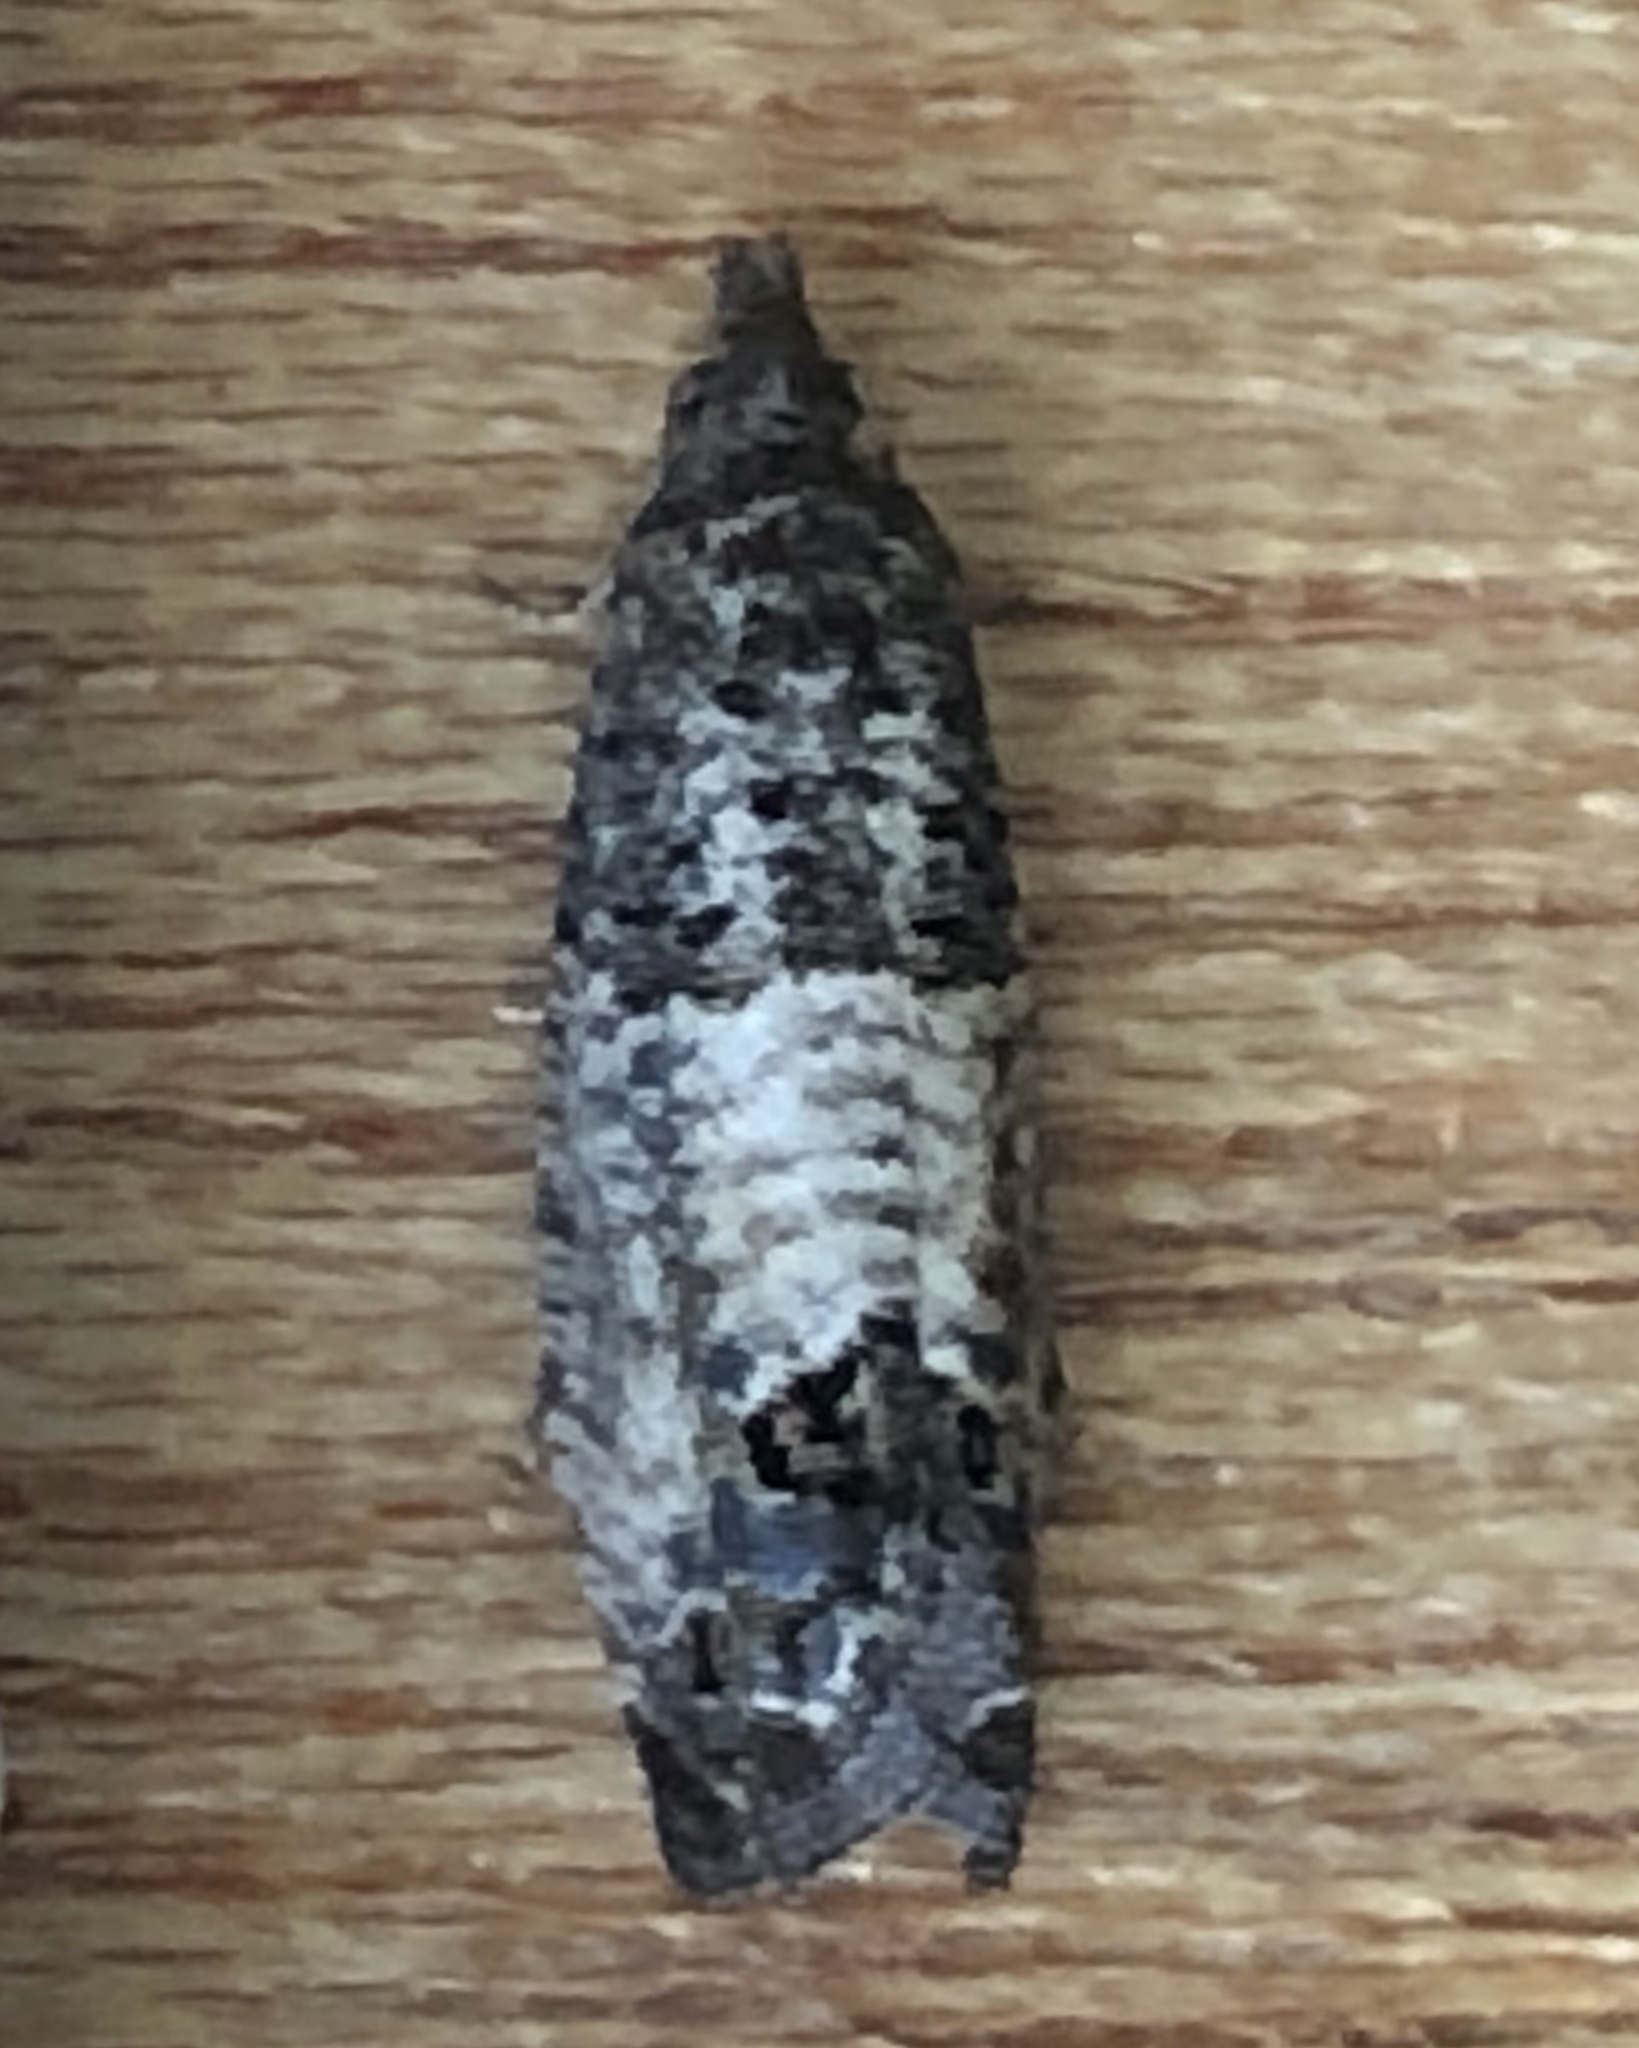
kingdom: Animalia
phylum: Arthropoda
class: Insecta
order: Lepidoptera
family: Tortricidae
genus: Cydia
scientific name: Cydia pomonella
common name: Codling moth
